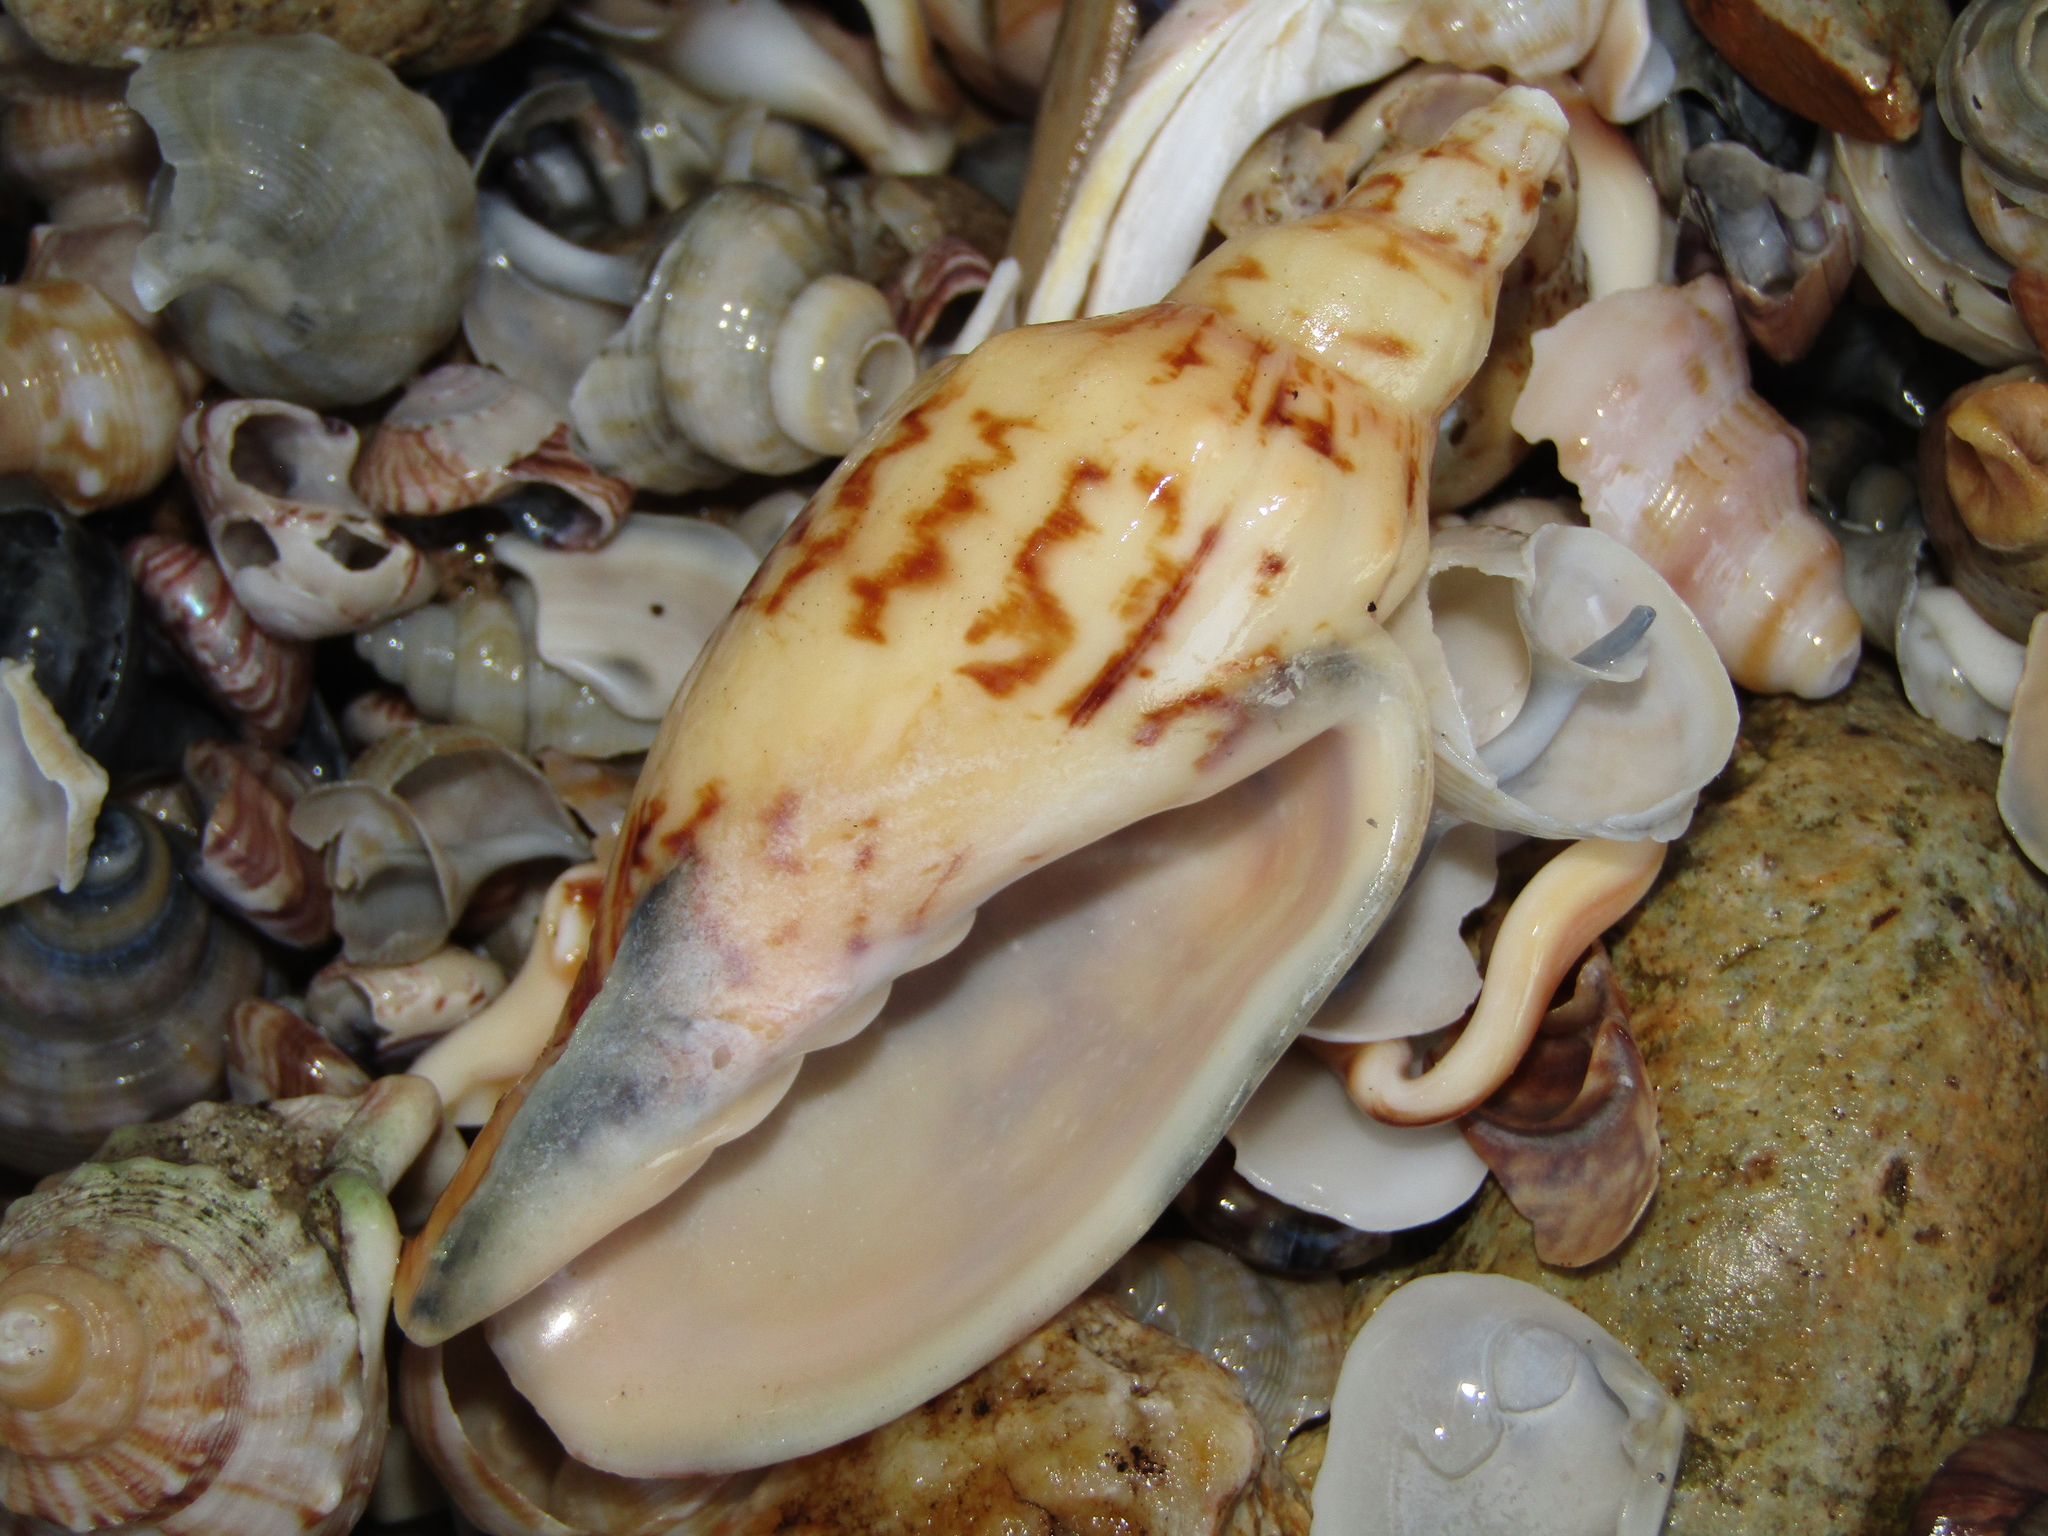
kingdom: Animalia
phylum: Mollusca
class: Gastropoda
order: Neogastropoda
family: Volutidae
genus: Alcithoe
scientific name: Alcithoe arabica
